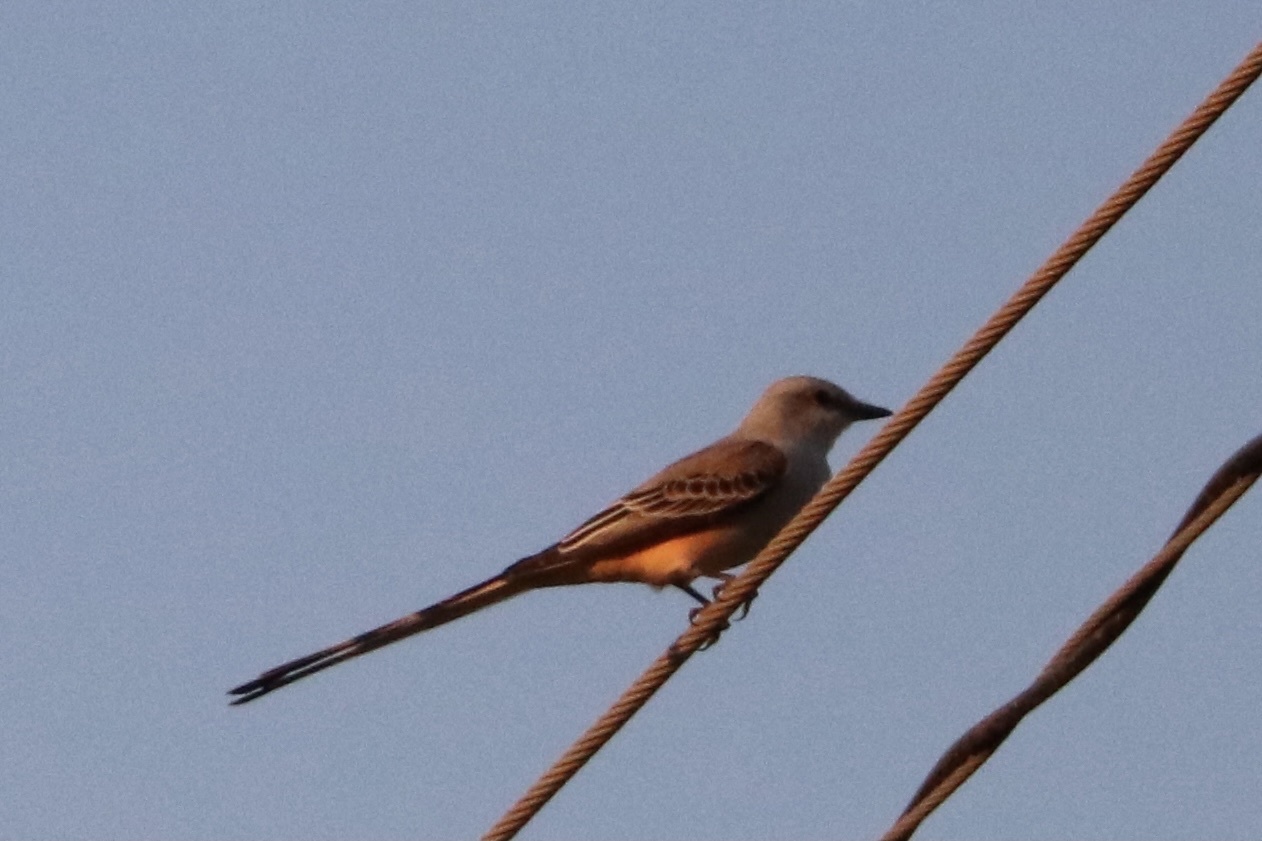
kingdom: Animalia
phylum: Chordata
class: Aves
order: Passeriformes
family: Tyrannidae
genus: Tyrannus
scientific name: Tyrannus forficatus
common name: Scissor-tailed flycatcher
